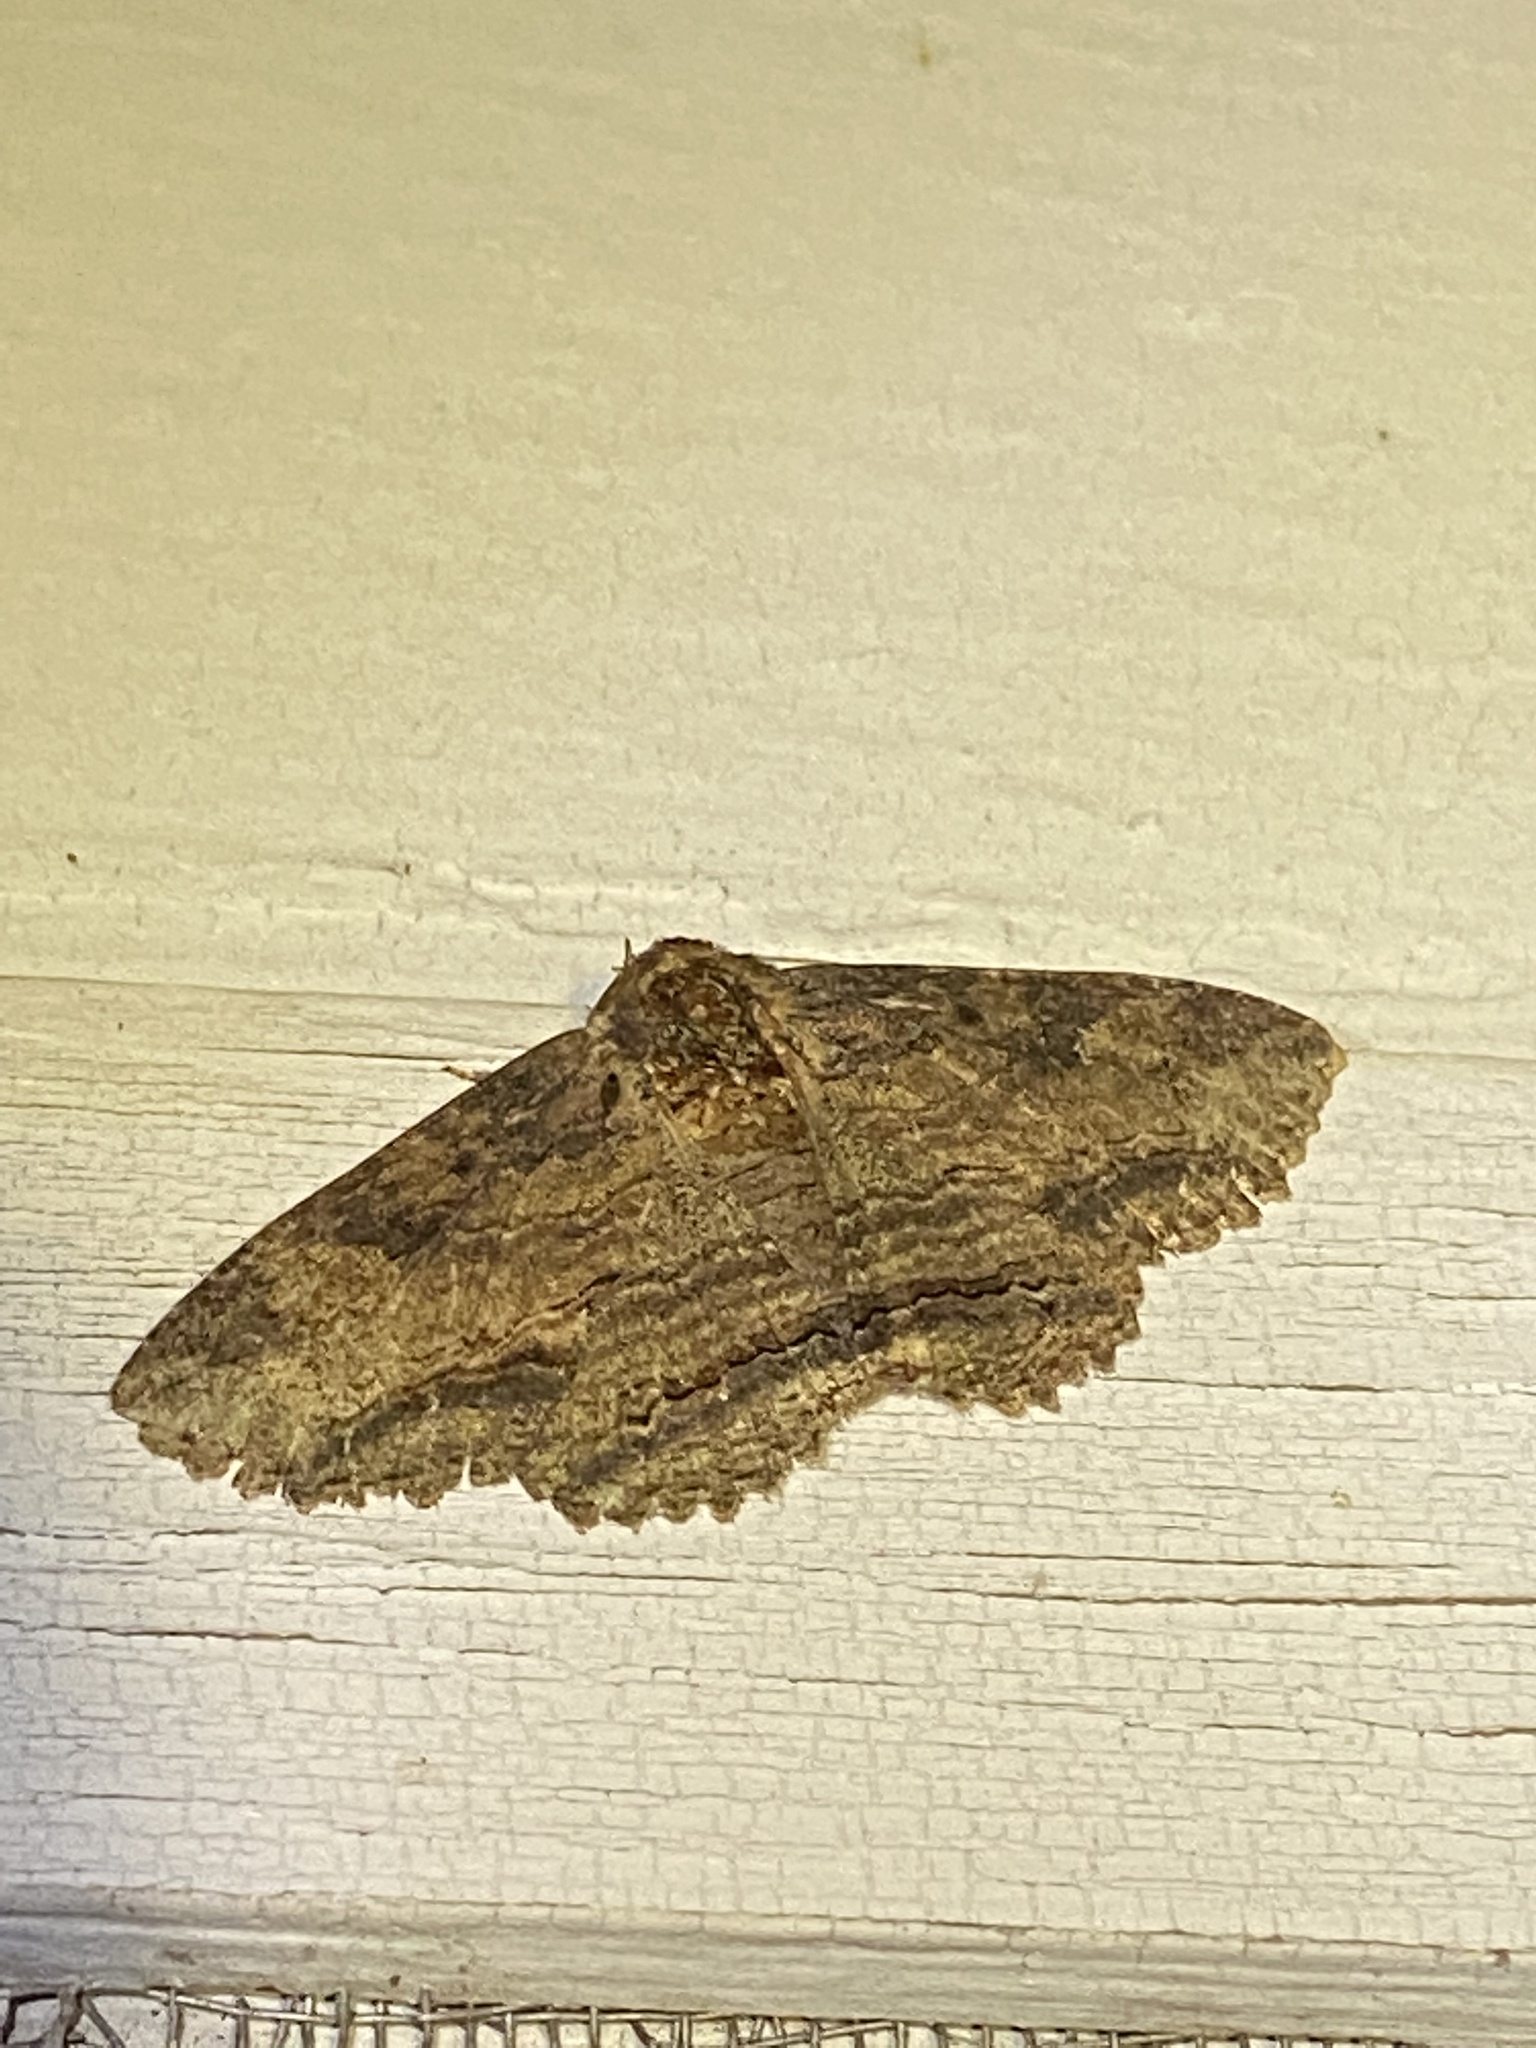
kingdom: Animalia
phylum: Arthropoda
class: Insecta
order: Lepidoptera
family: Erebidae
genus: Zale
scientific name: Zale lunata
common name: Lunate zale moth
